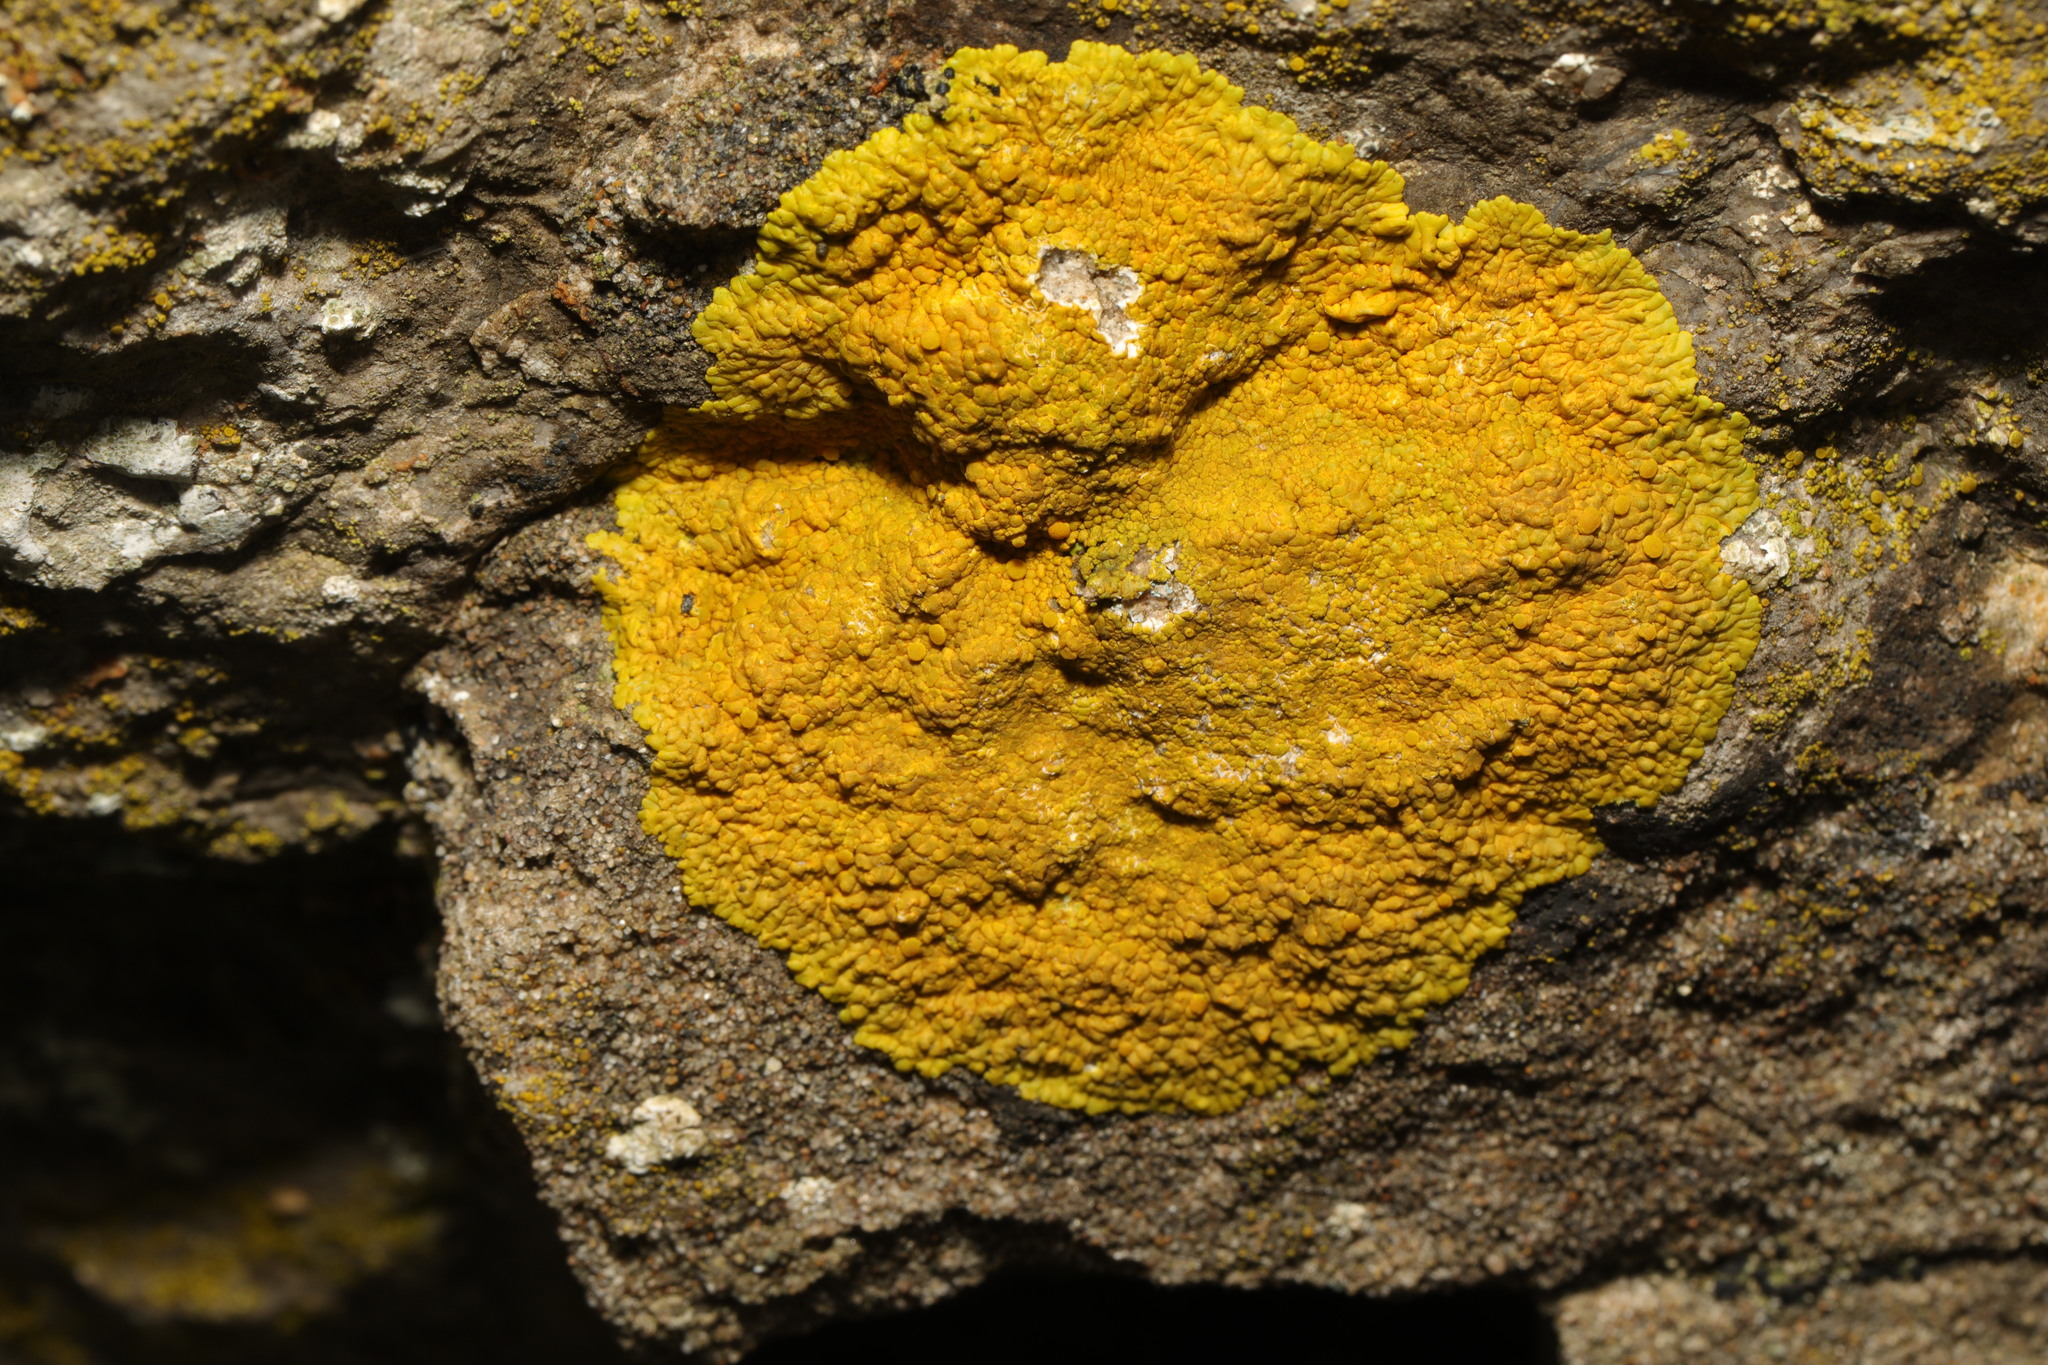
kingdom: Fungi
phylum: Ascomycota
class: Lecanoromycetes
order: Teloschistales
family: Teloschistaceae
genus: Variospora
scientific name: Variospora flavescens
